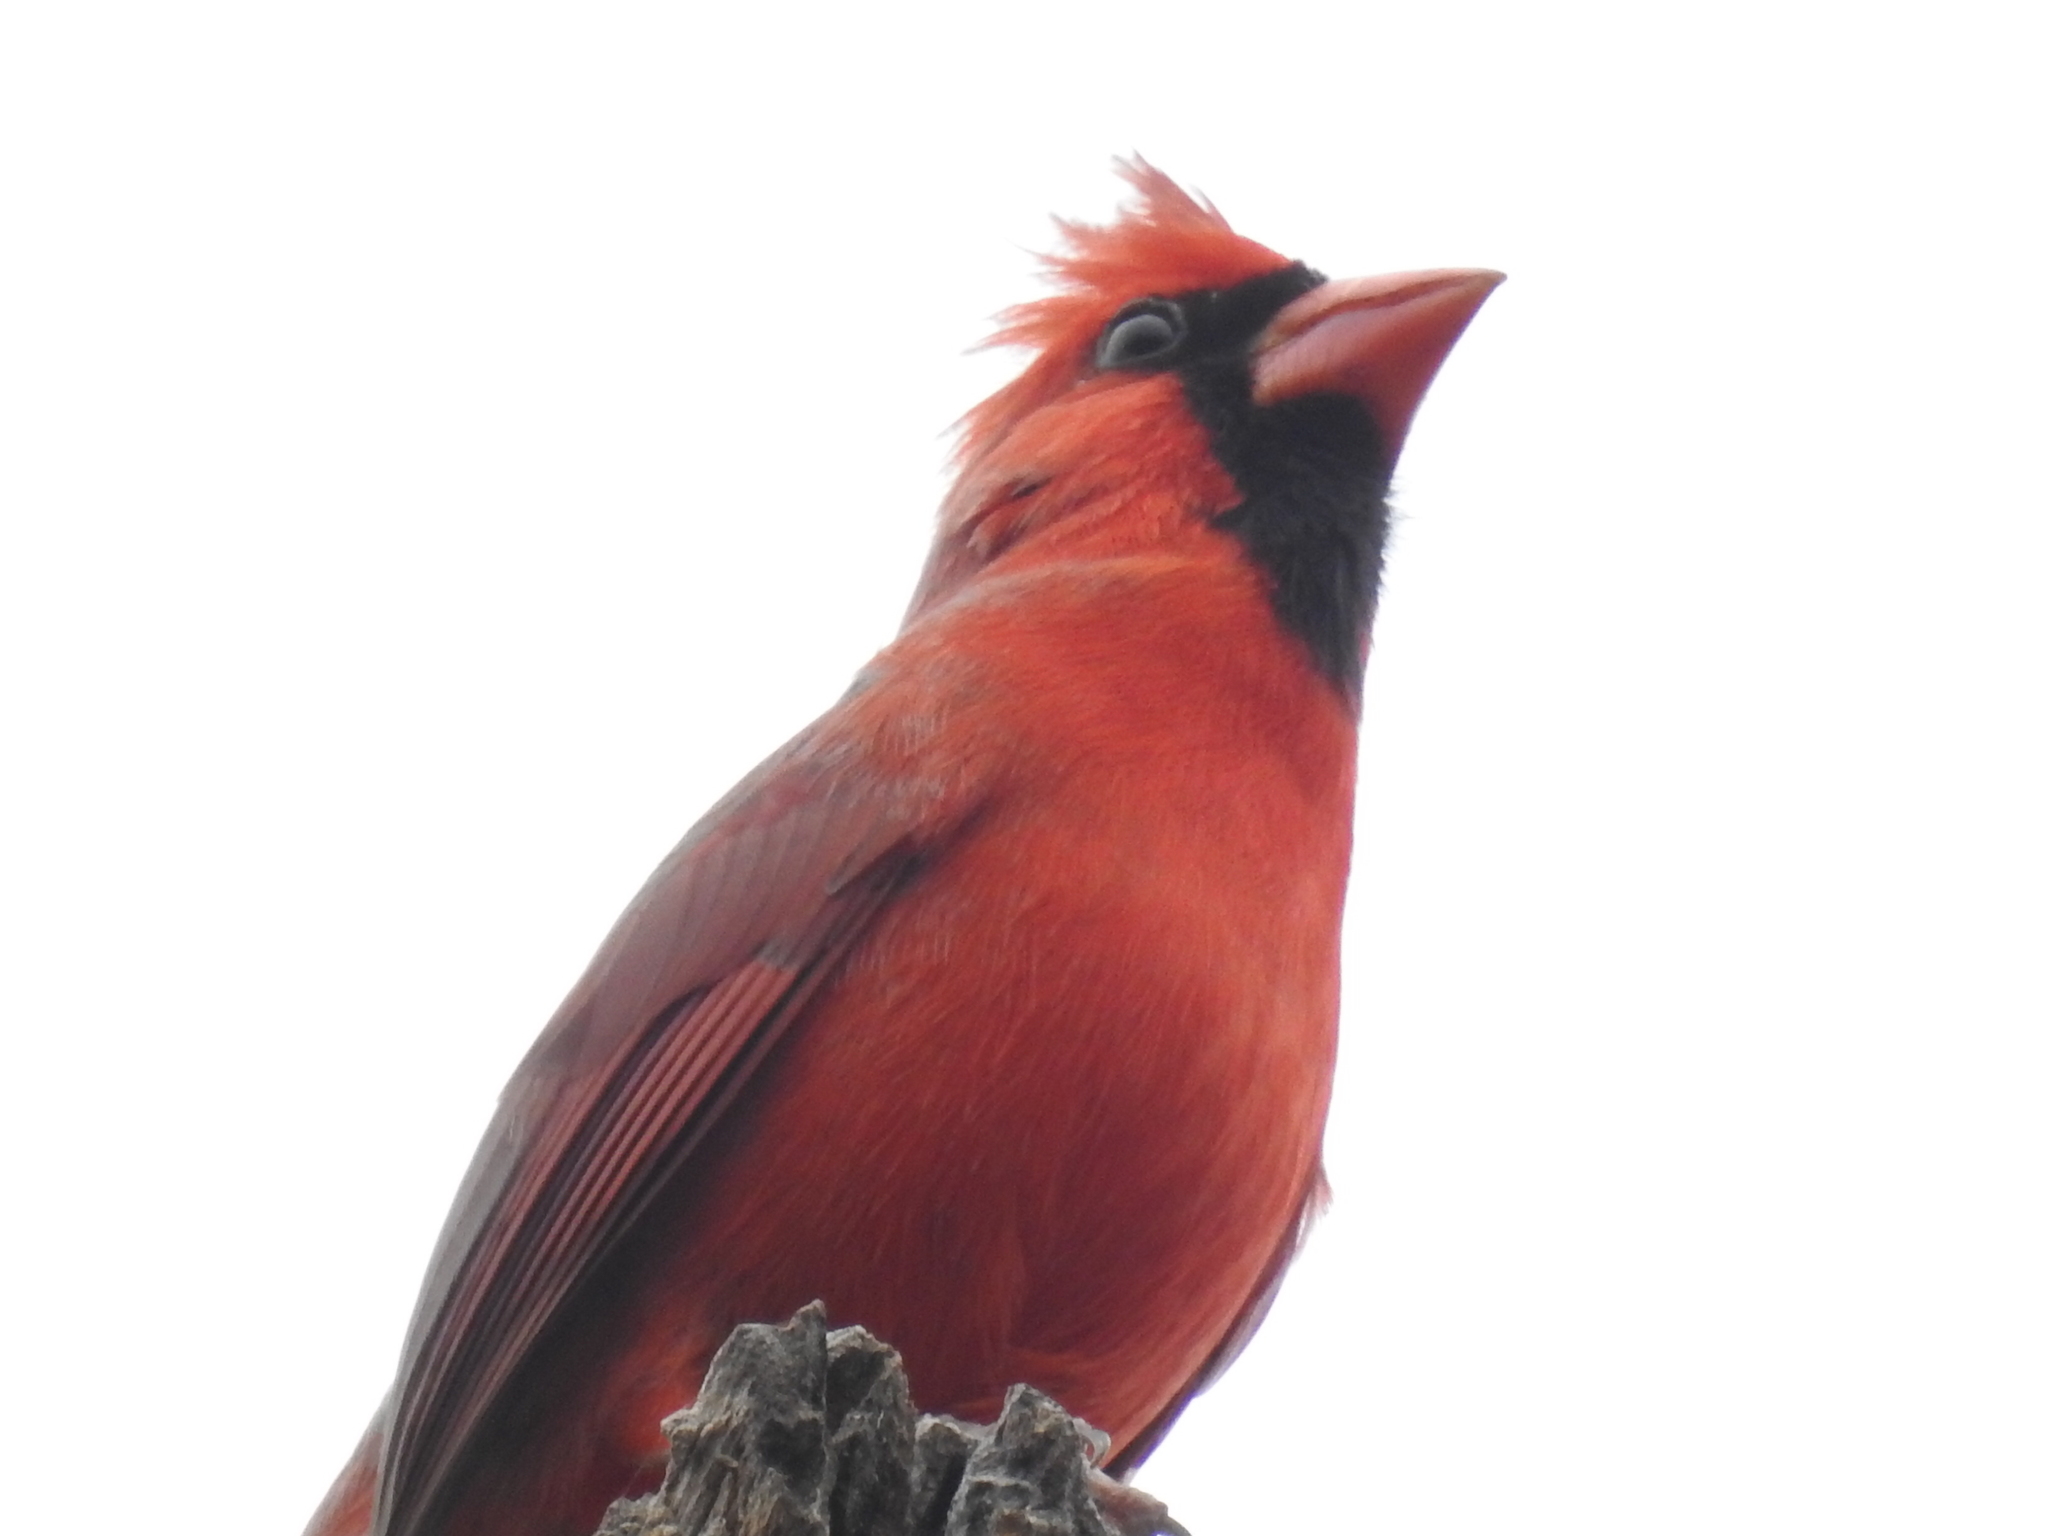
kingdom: Animalia
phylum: Chordata
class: Aves
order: Passeriformes
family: Cardinalidae
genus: Cardinalis
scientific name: Cardinalis cardinalis
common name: Northern cardinal
